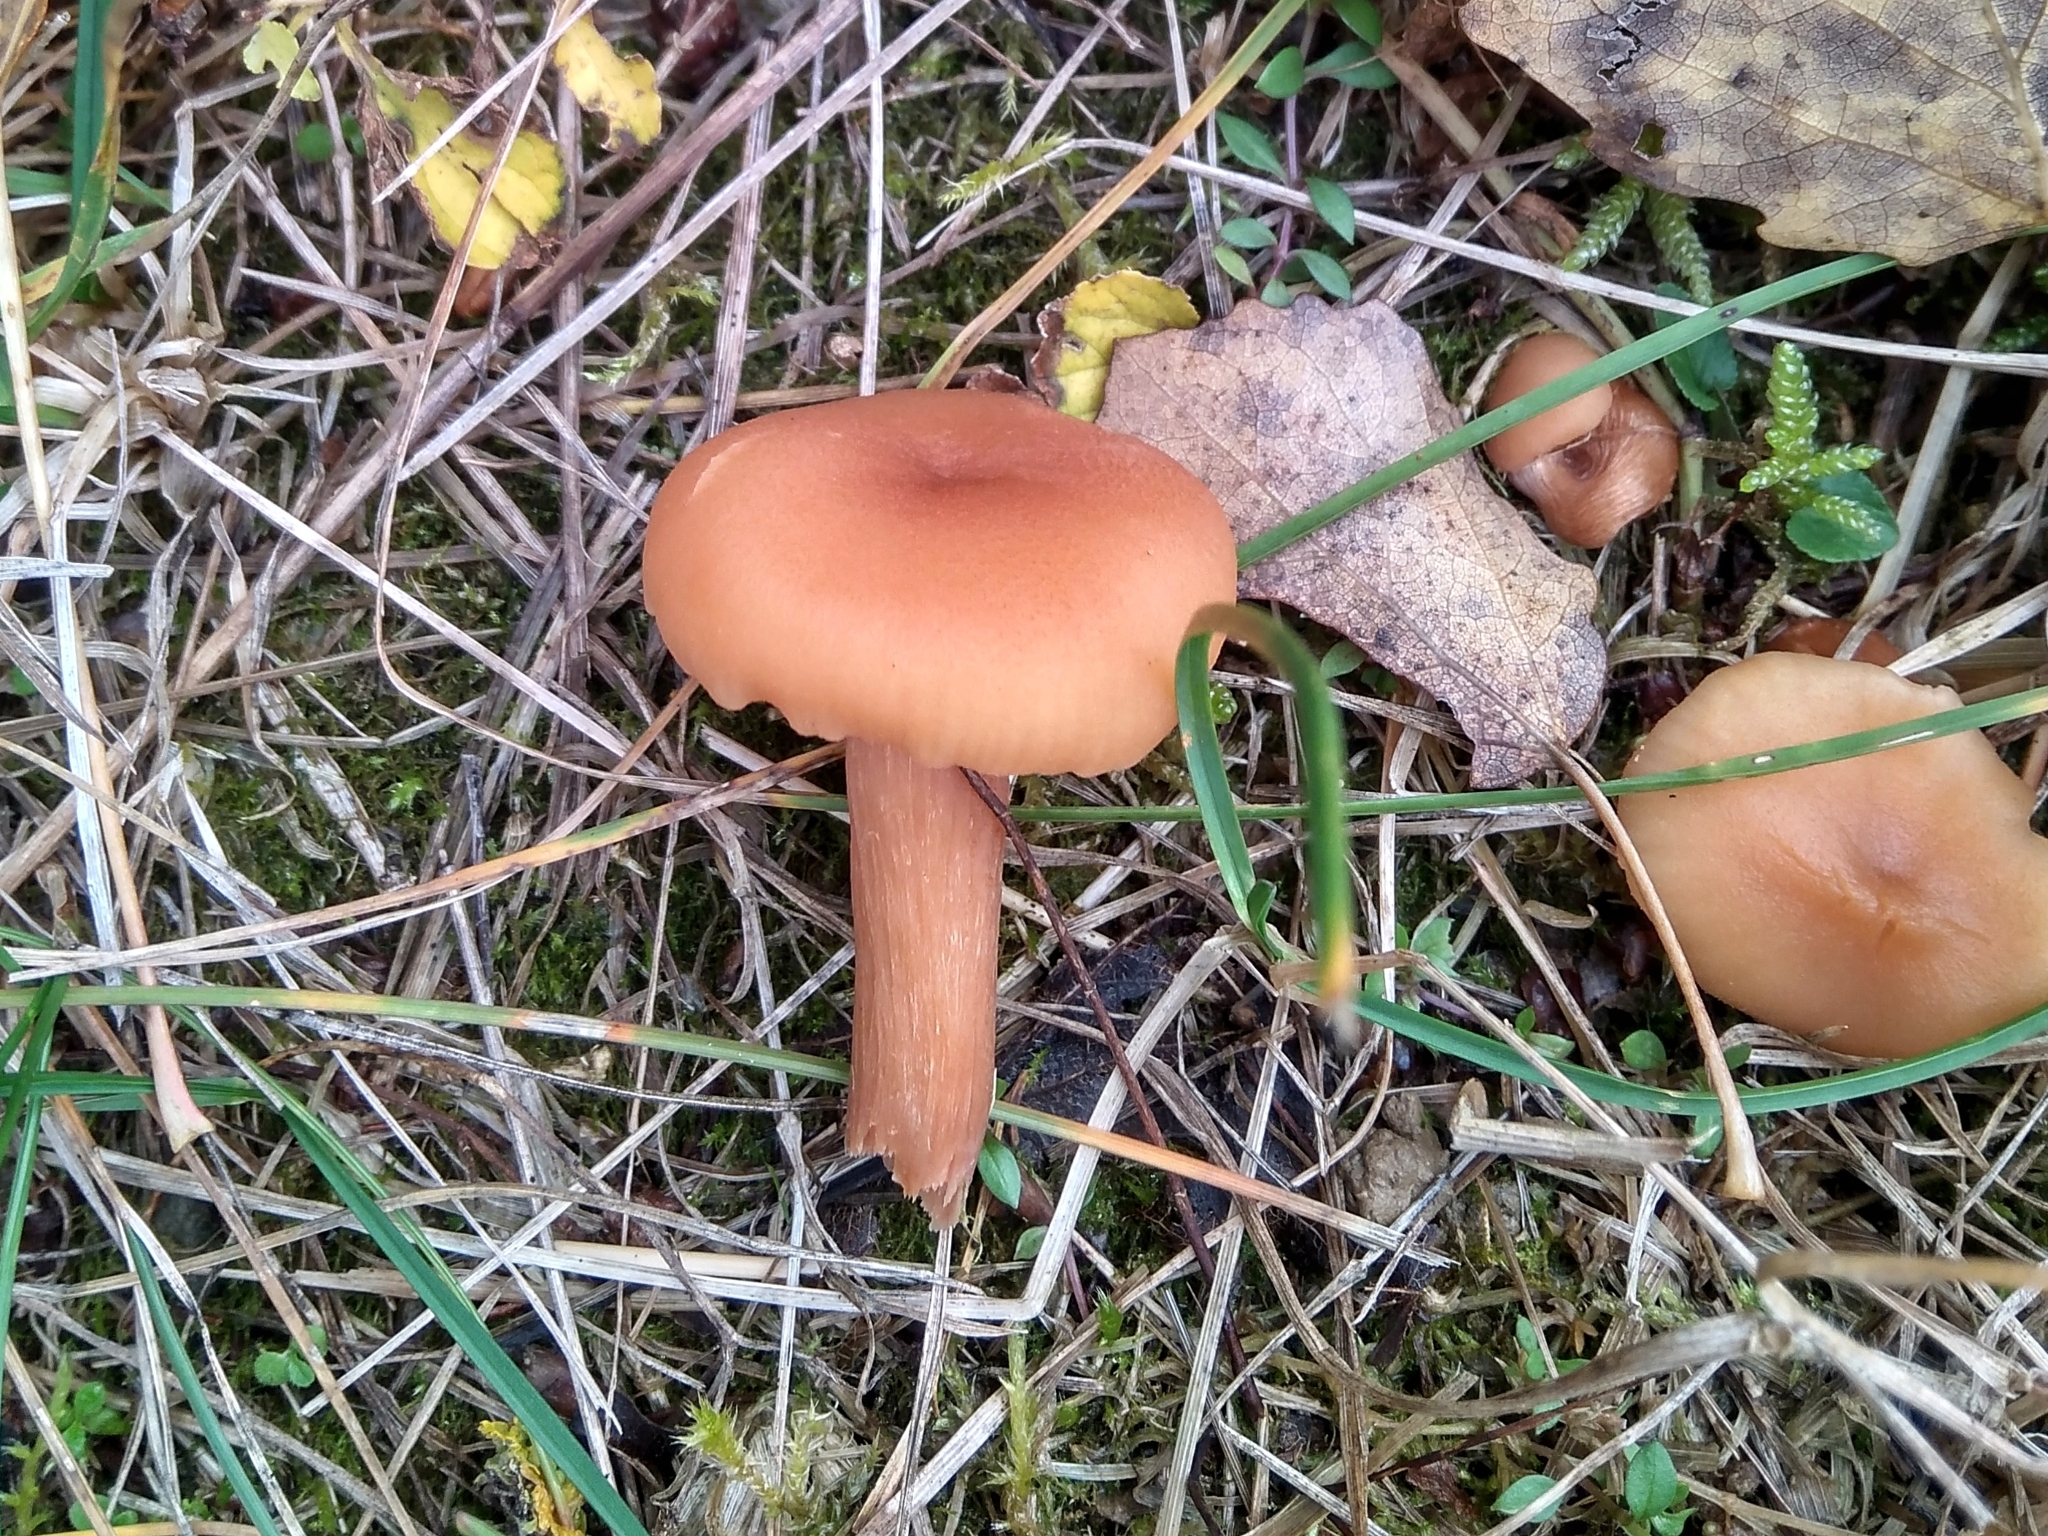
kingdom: Fungi
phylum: Basidiomycota
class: Agaricomycetes
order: Agaricales
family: Hydnangiaceae
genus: Laccaria
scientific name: Laccaria laccata
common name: Deceiver
